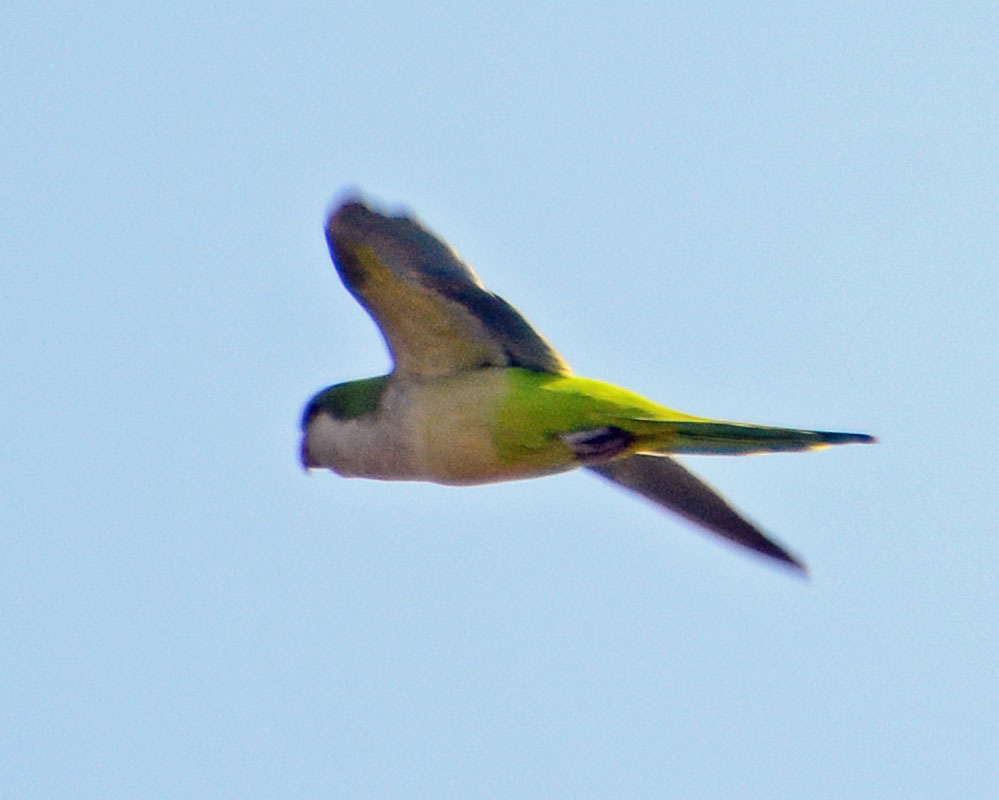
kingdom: Animalia
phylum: Chordata
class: Aves
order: Psittaciformes
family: Psittacidae
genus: Myiopsitta
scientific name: Myiopsitta monachus
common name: Monk parakeet
